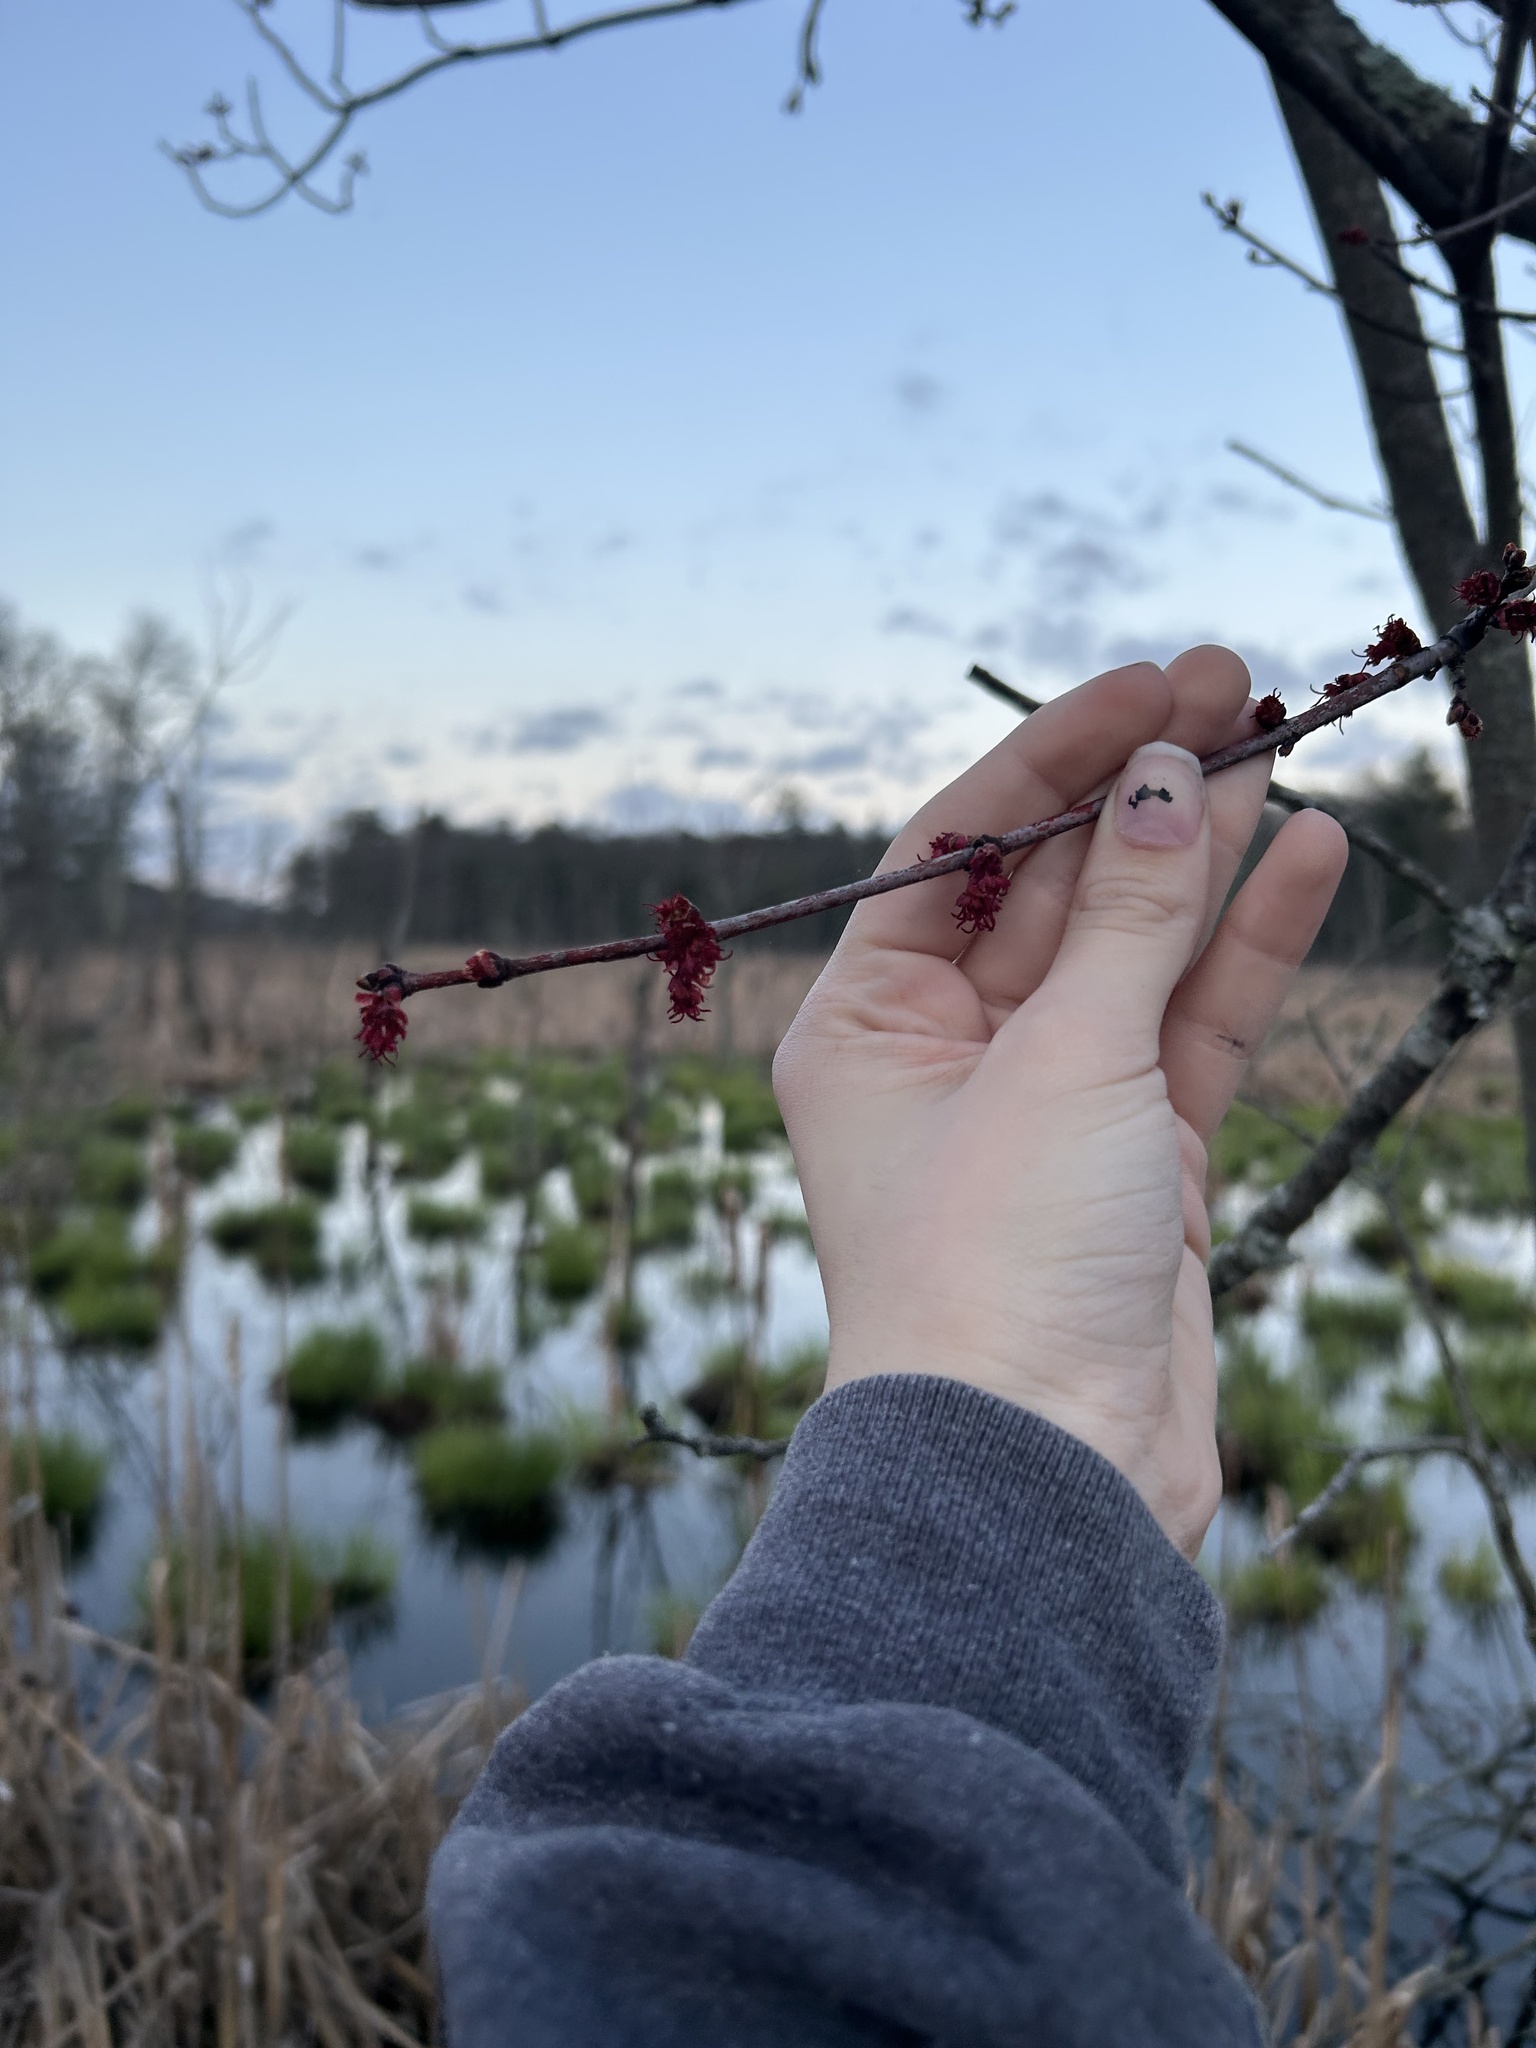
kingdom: Plantae
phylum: Tracheophyta
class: Magnoliopsida
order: Sapindales
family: Sapindaceae
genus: Acer
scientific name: Acer rubrum
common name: Red maple
